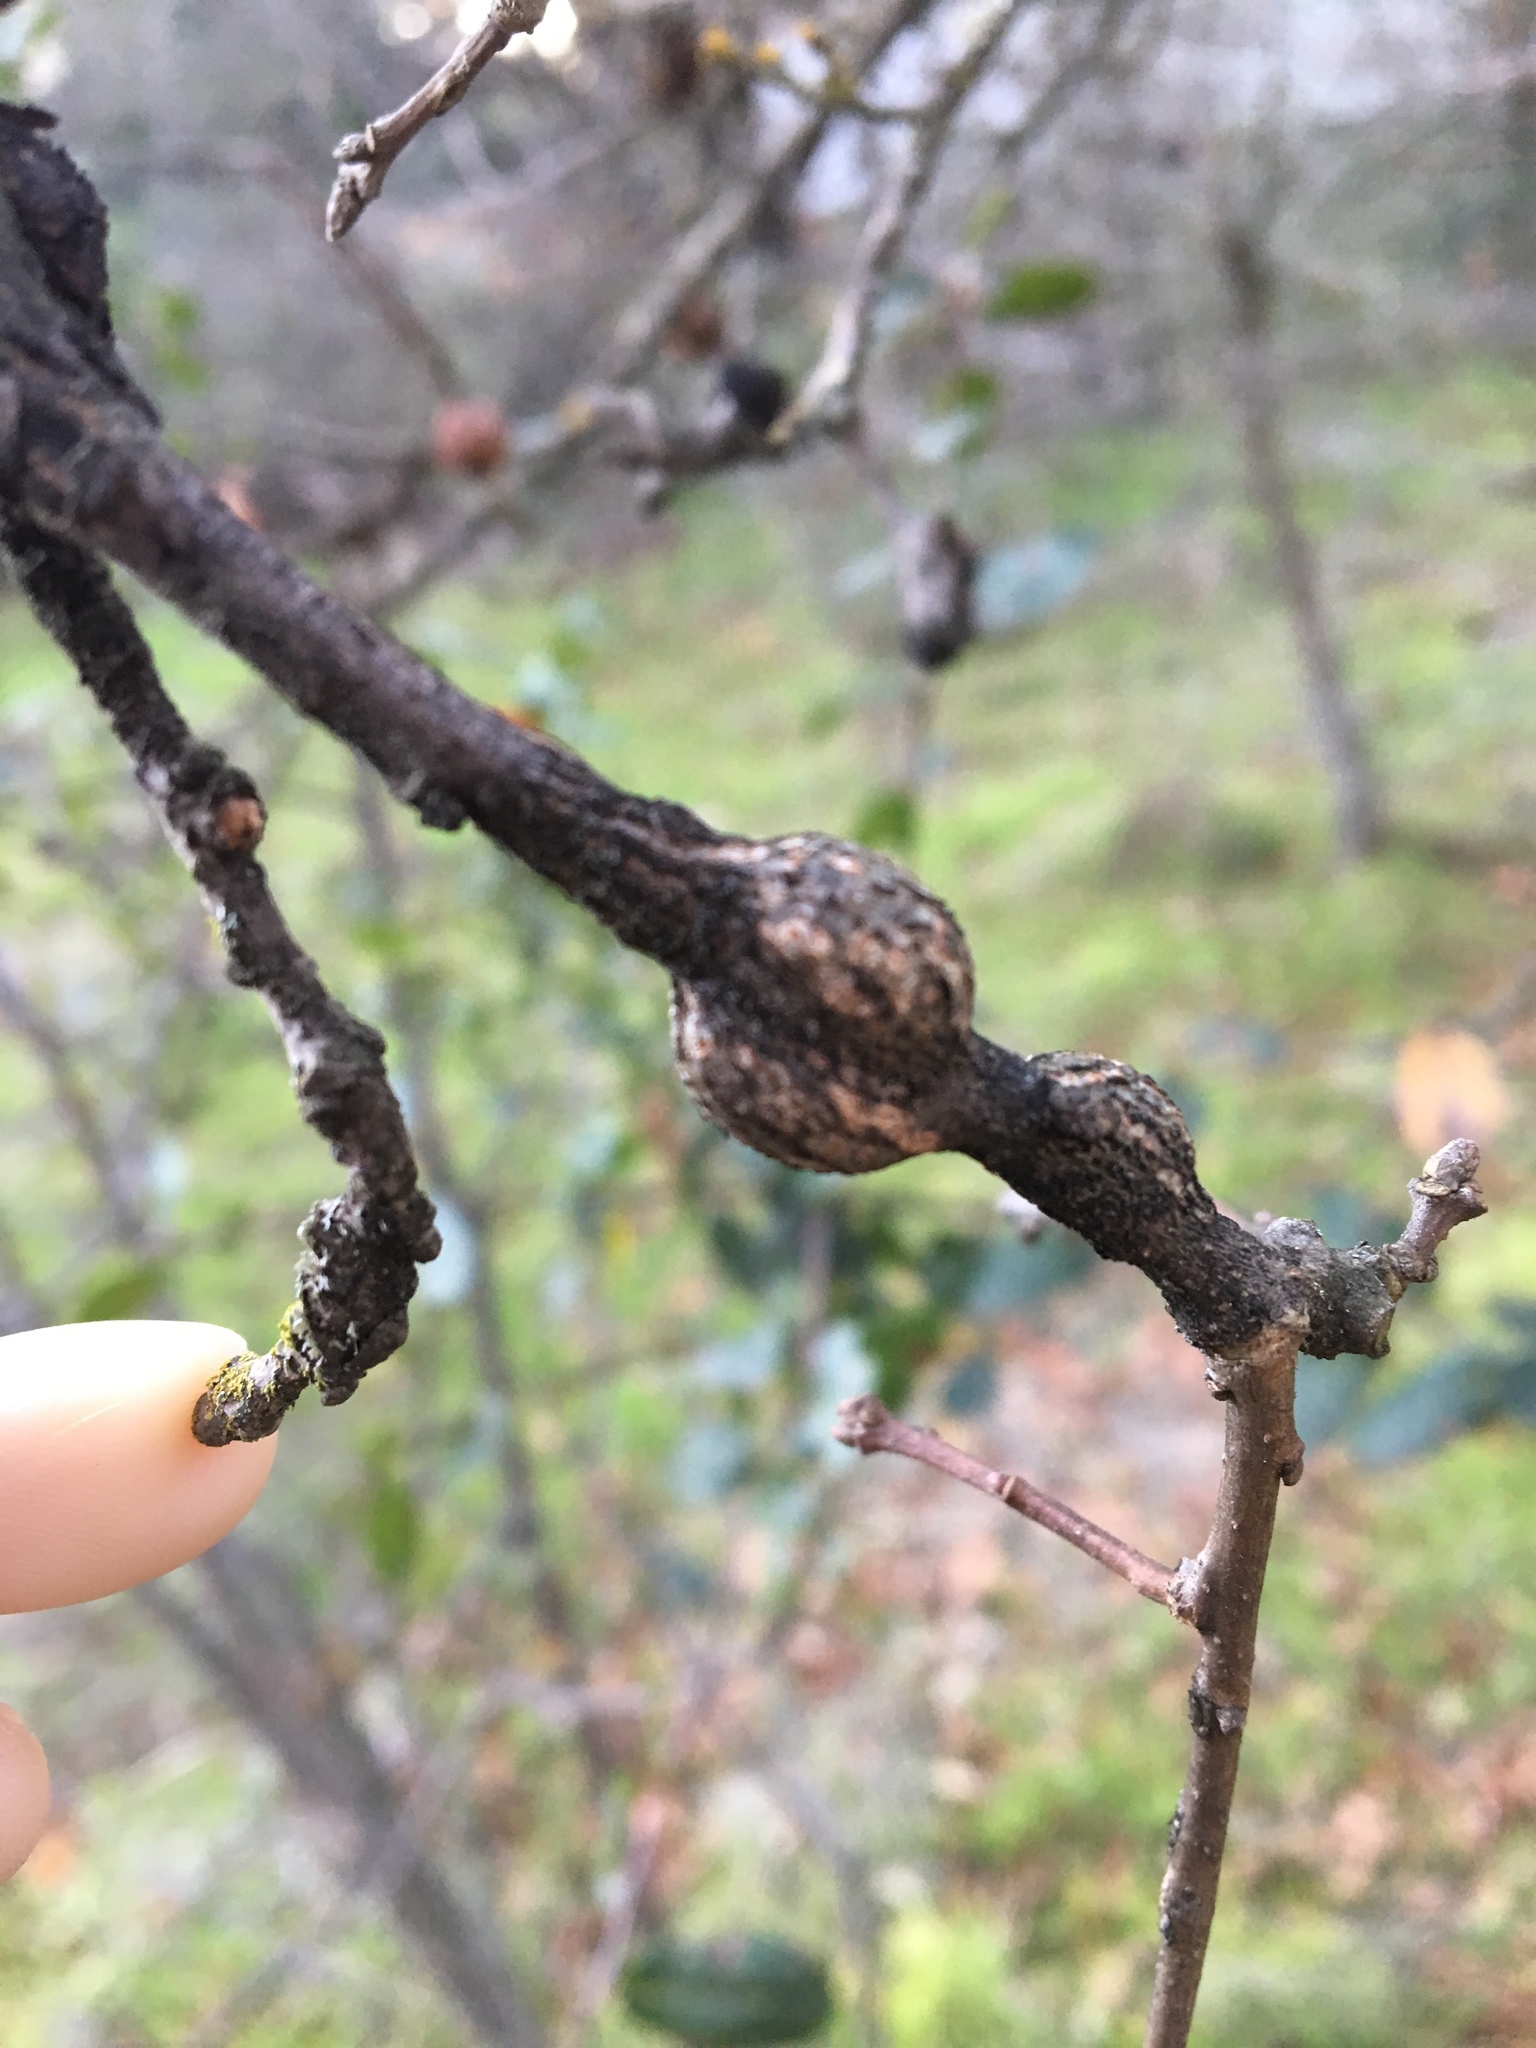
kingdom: Animalia
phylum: Arthropoda
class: Insecta
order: Hymenoptera
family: Cynipidae
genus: Andricus
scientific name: Andricus quercuscalifornicus
